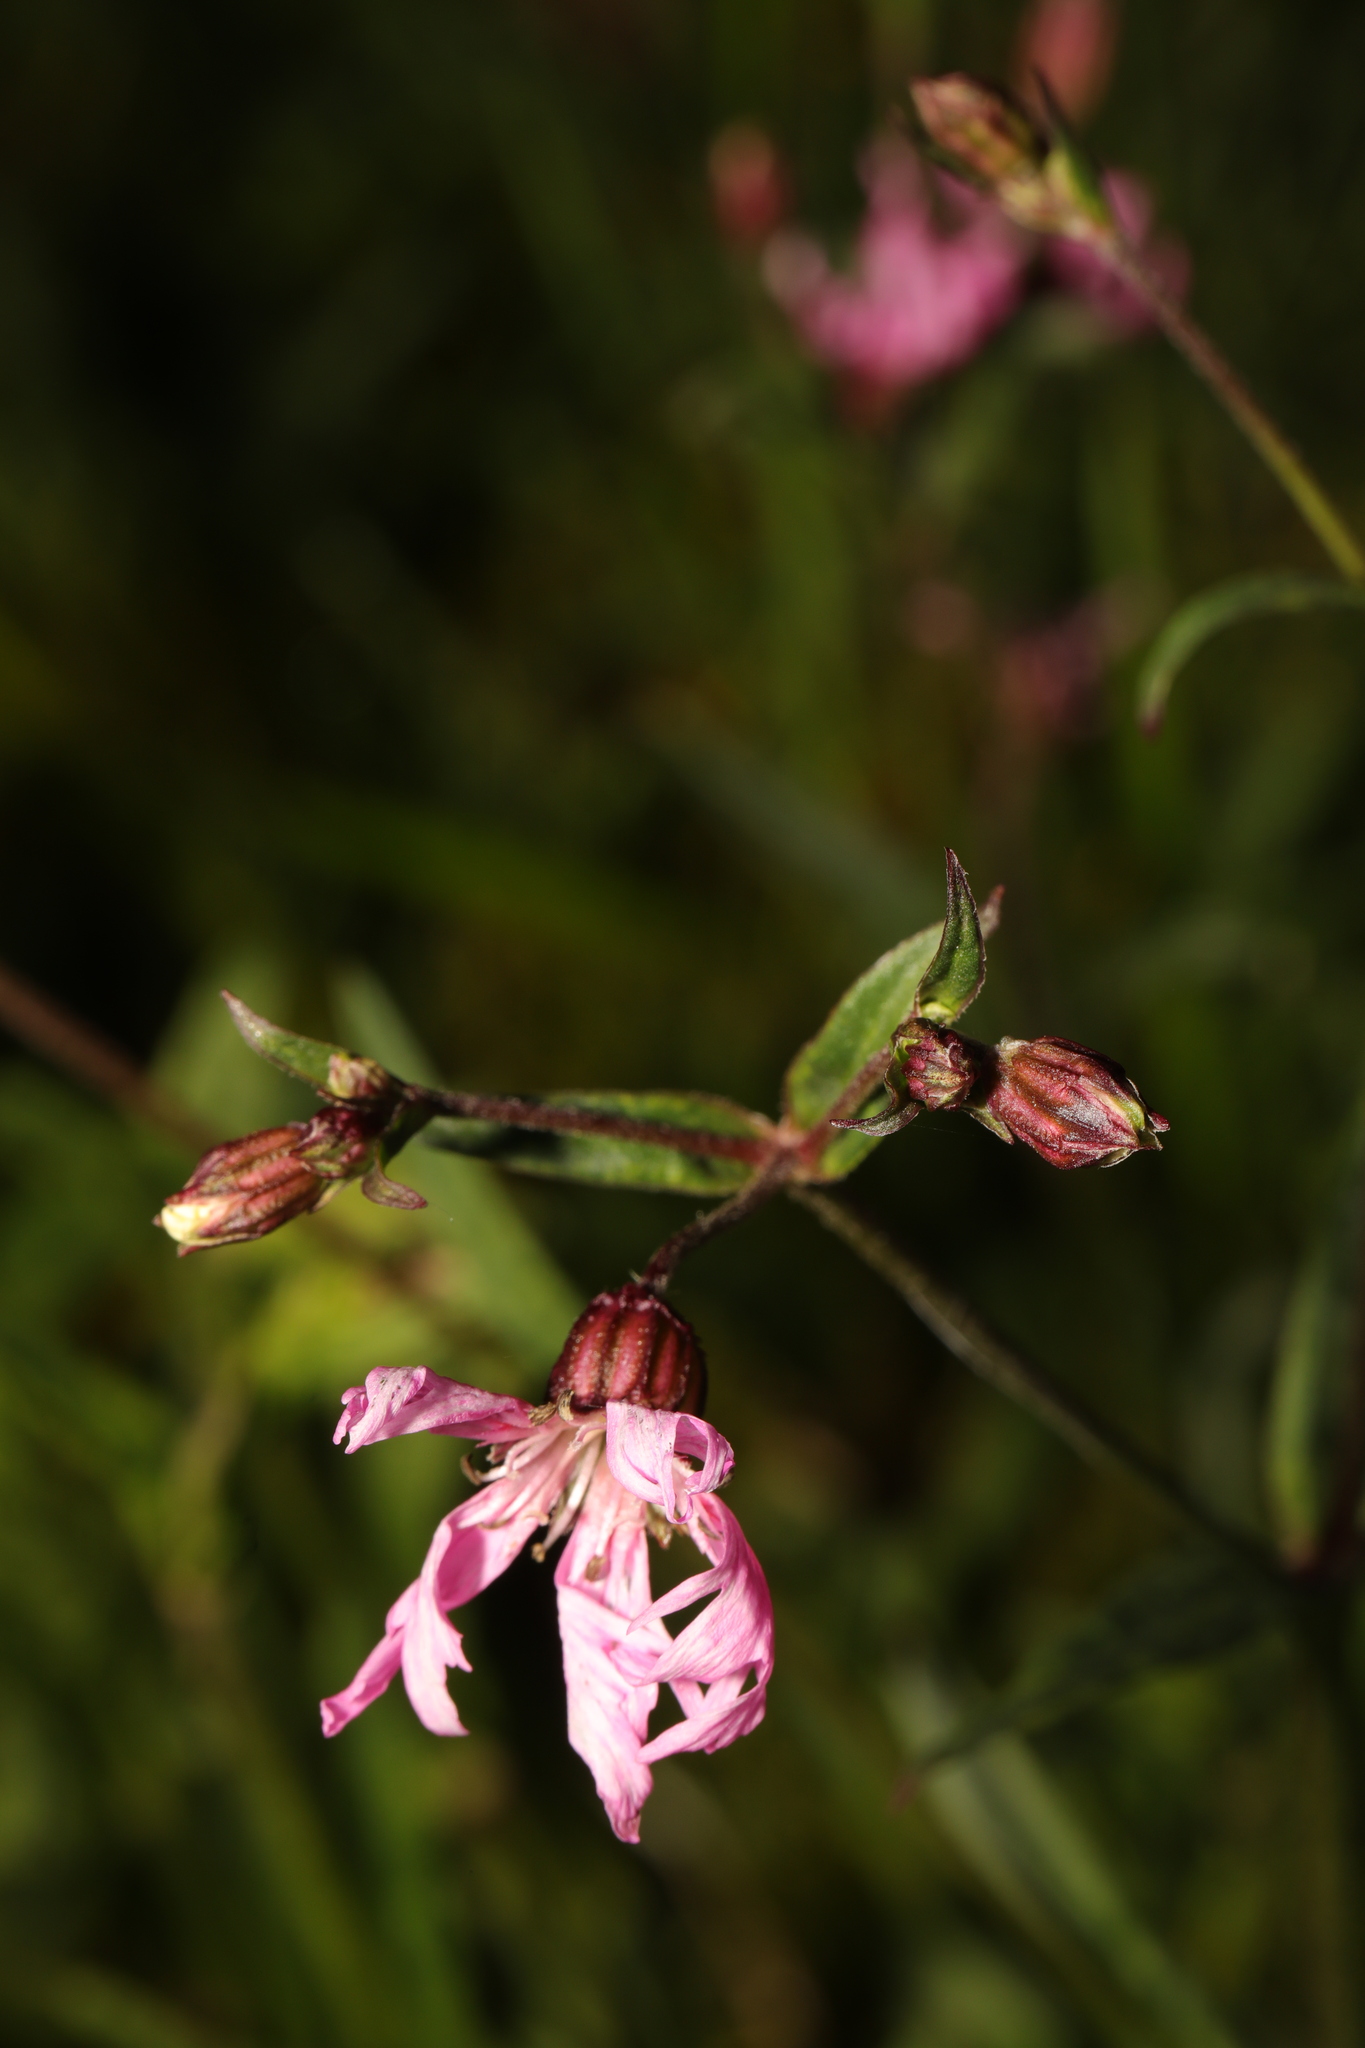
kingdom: Plantae
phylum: Tracheophyta
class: Magnoliopsida
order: Caryophyllales
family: Caryophyllaceae
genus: Silene
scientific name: Silene flos-cuculi
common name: Ragged-robin
